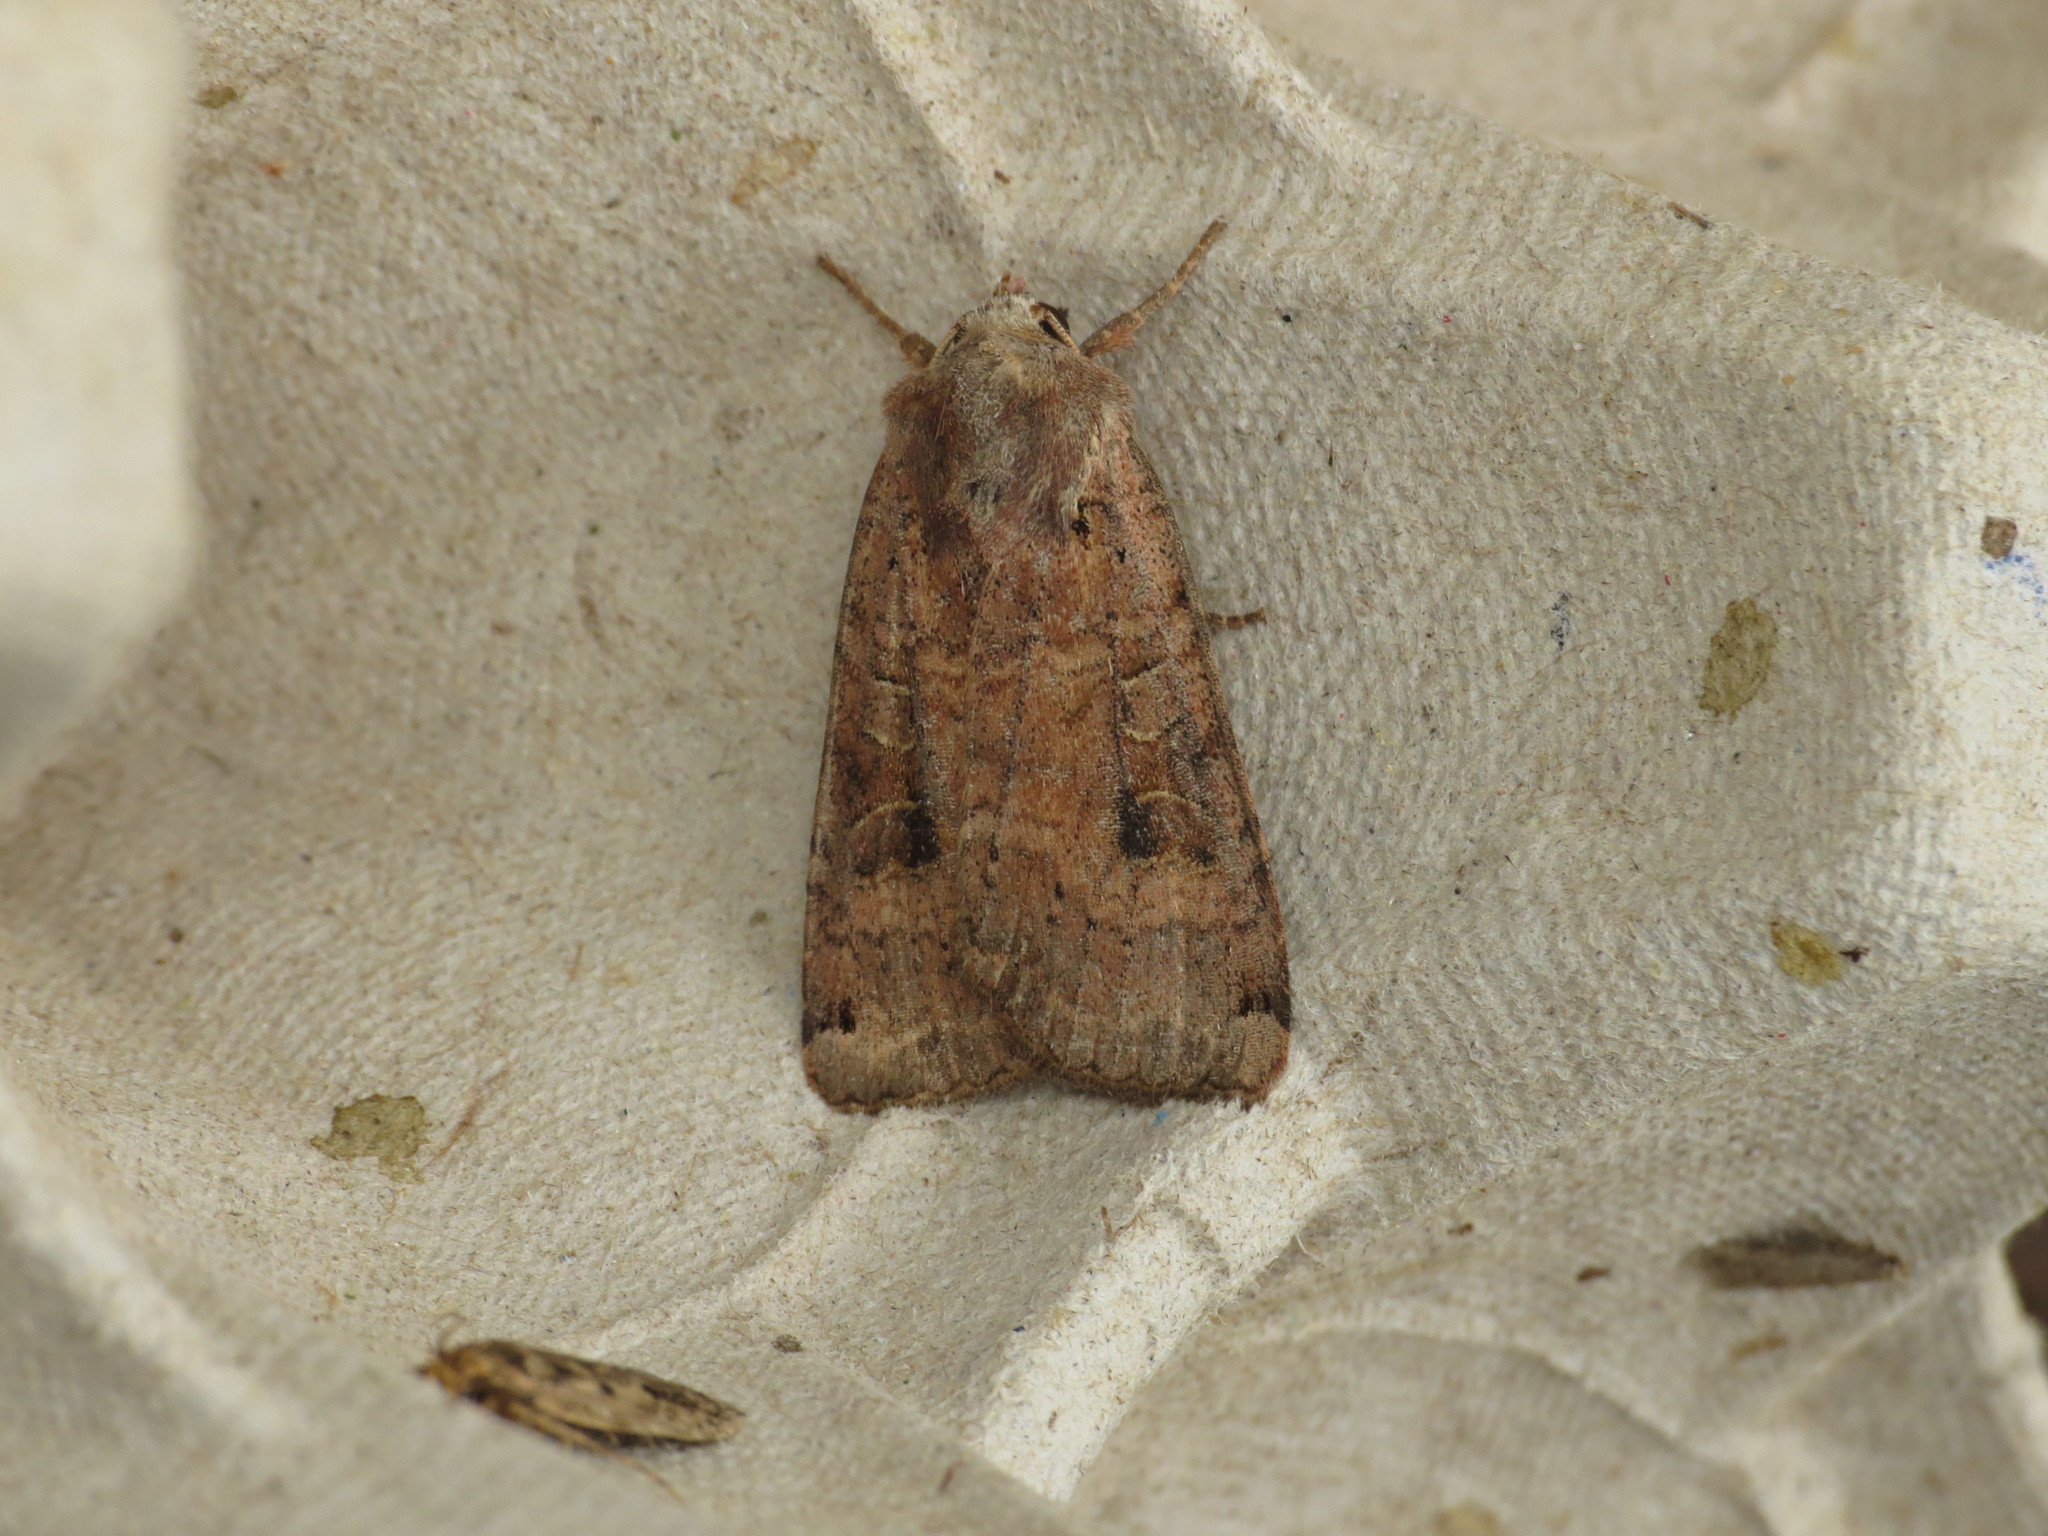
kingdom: Animalia
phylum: Arthropoda
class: Insecta
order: Lepidoptera
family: Noctuidae
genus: Xestia
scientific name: Xestia baja
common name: Dotted clay
